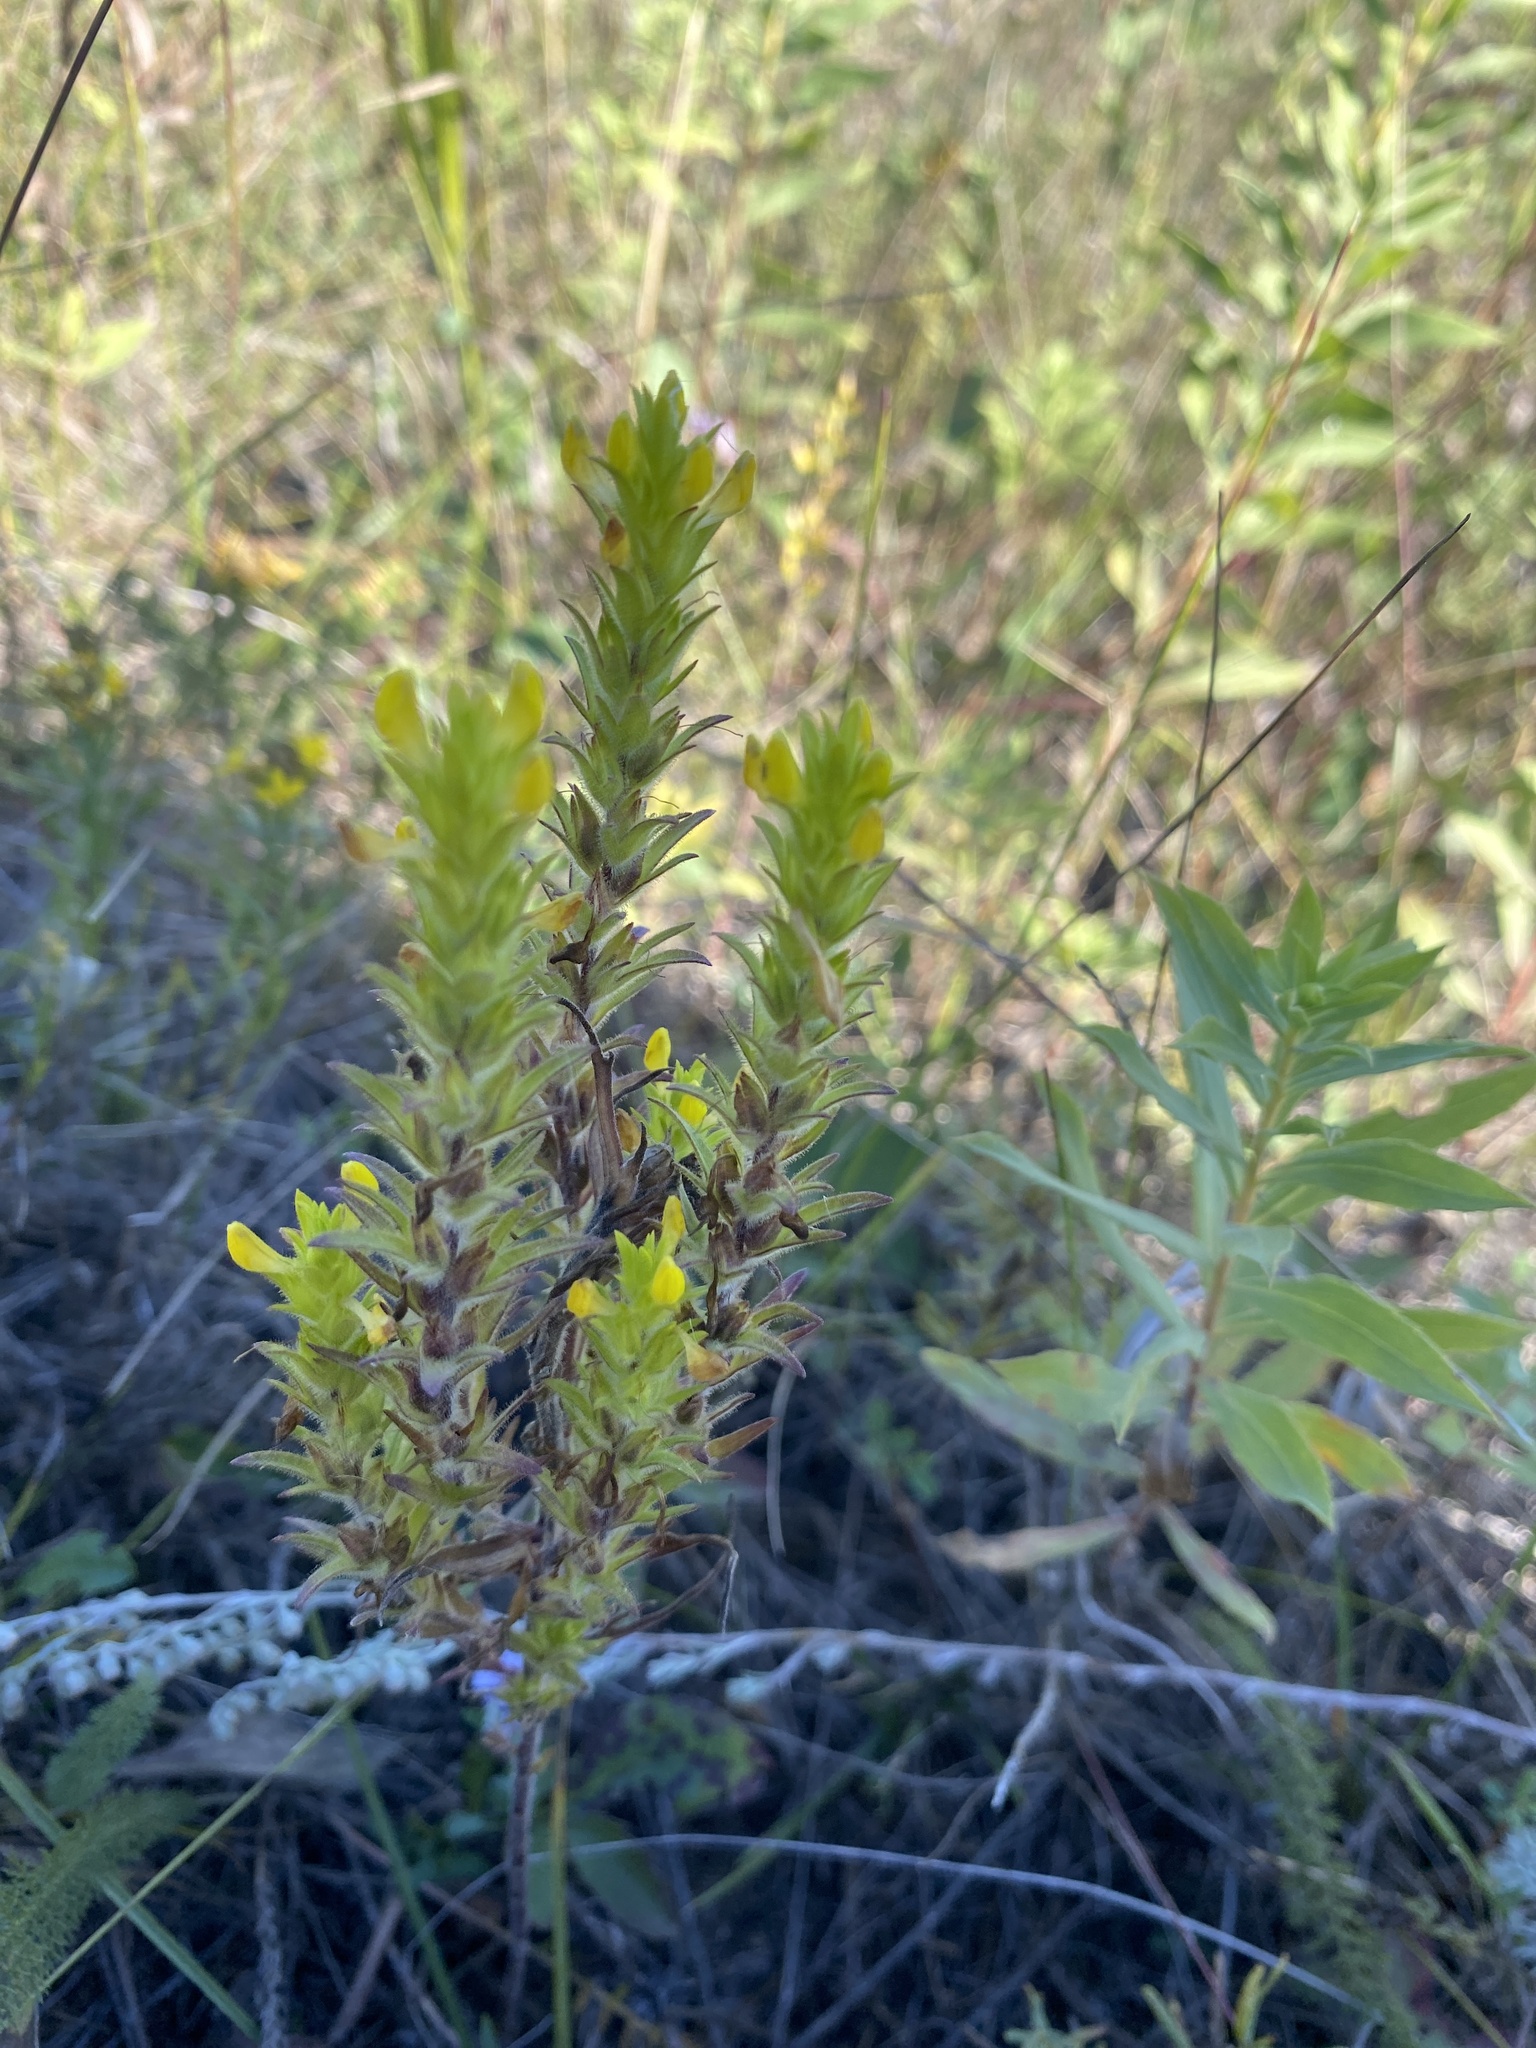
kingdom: Plantae
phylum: Tracheophyta
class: Magnoliopsida
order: Lamiales
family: Orobanchaceae
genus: Orthocarpus
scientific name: Orthocarpus luteus
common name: Golden-tongue owl's-clover
